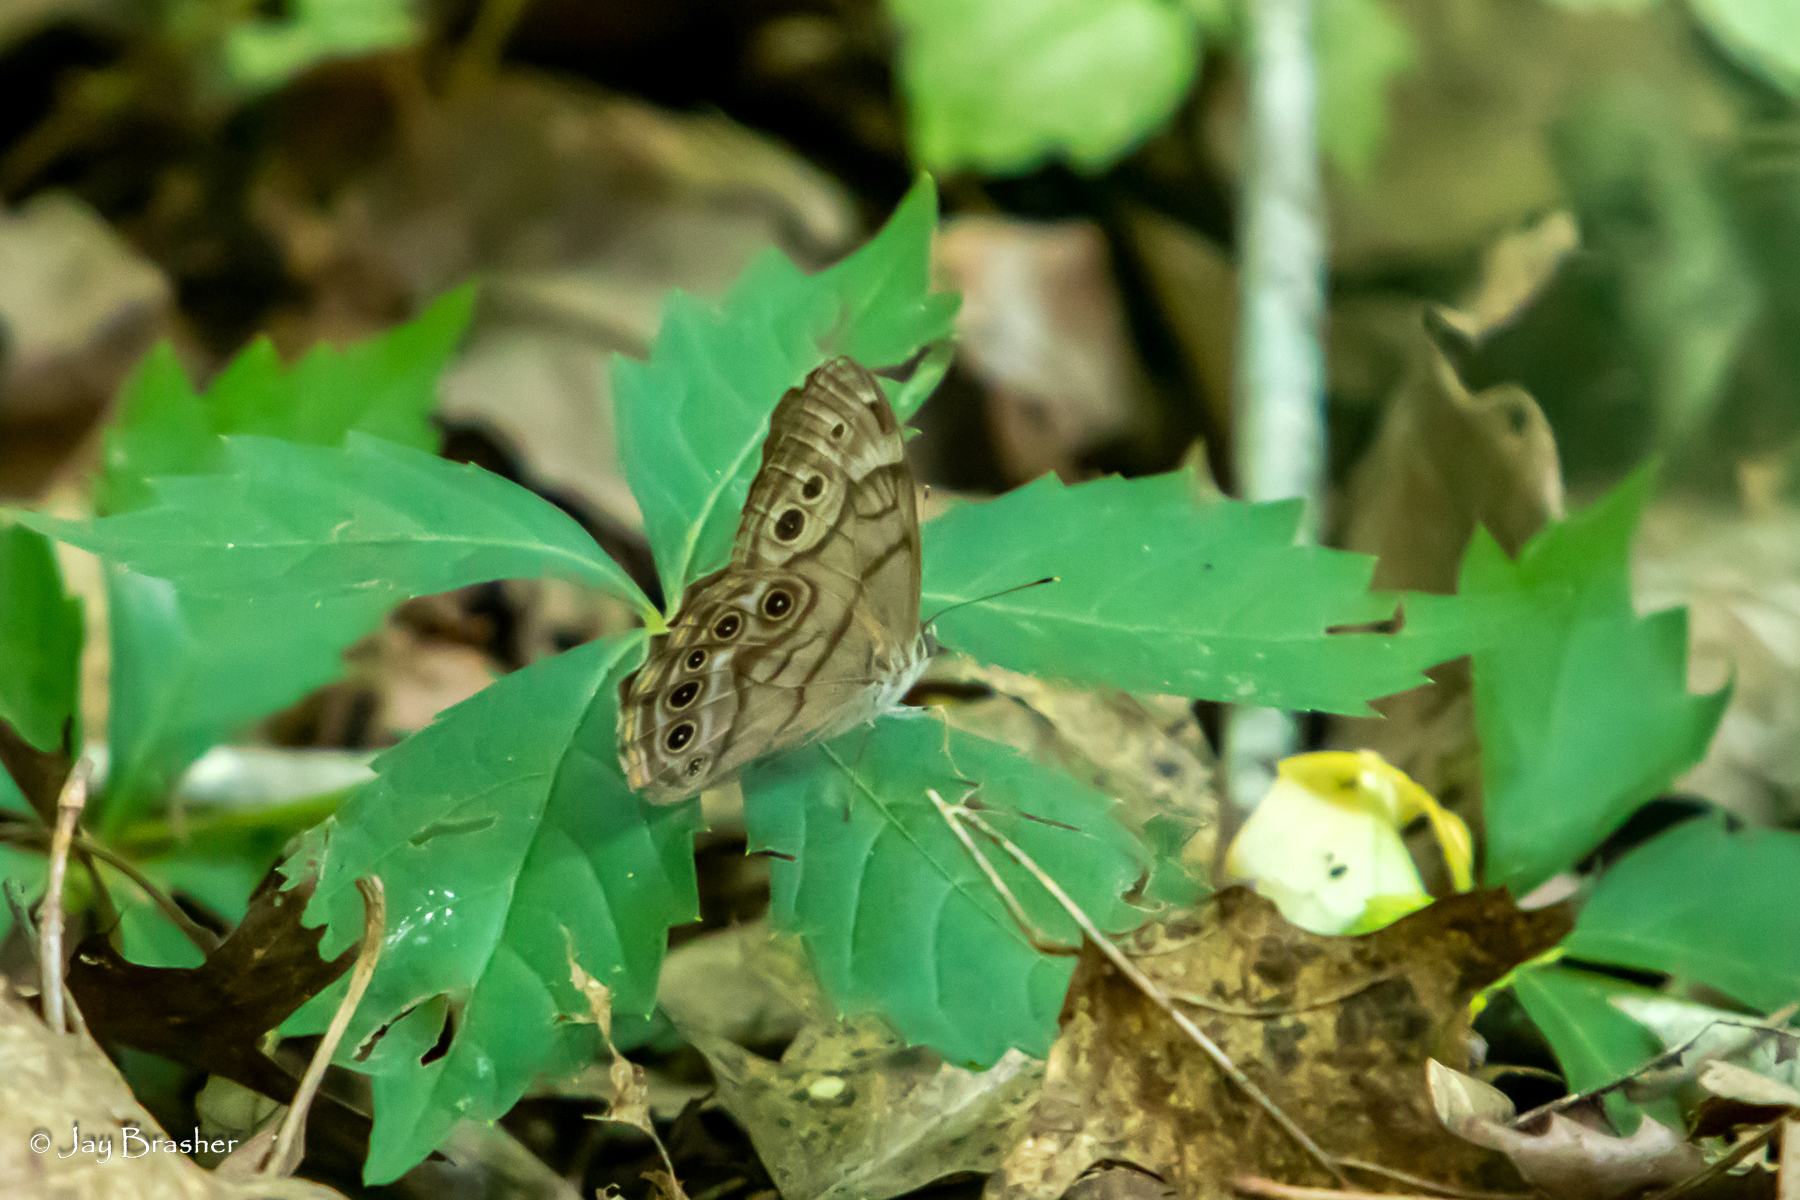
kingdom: Animalia
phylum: Arthropoda
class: Insecta
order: Lepidoptera
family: Nymphalidae
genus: Lethe
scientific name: Lethe anthedon
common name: Northern pearly-eye
